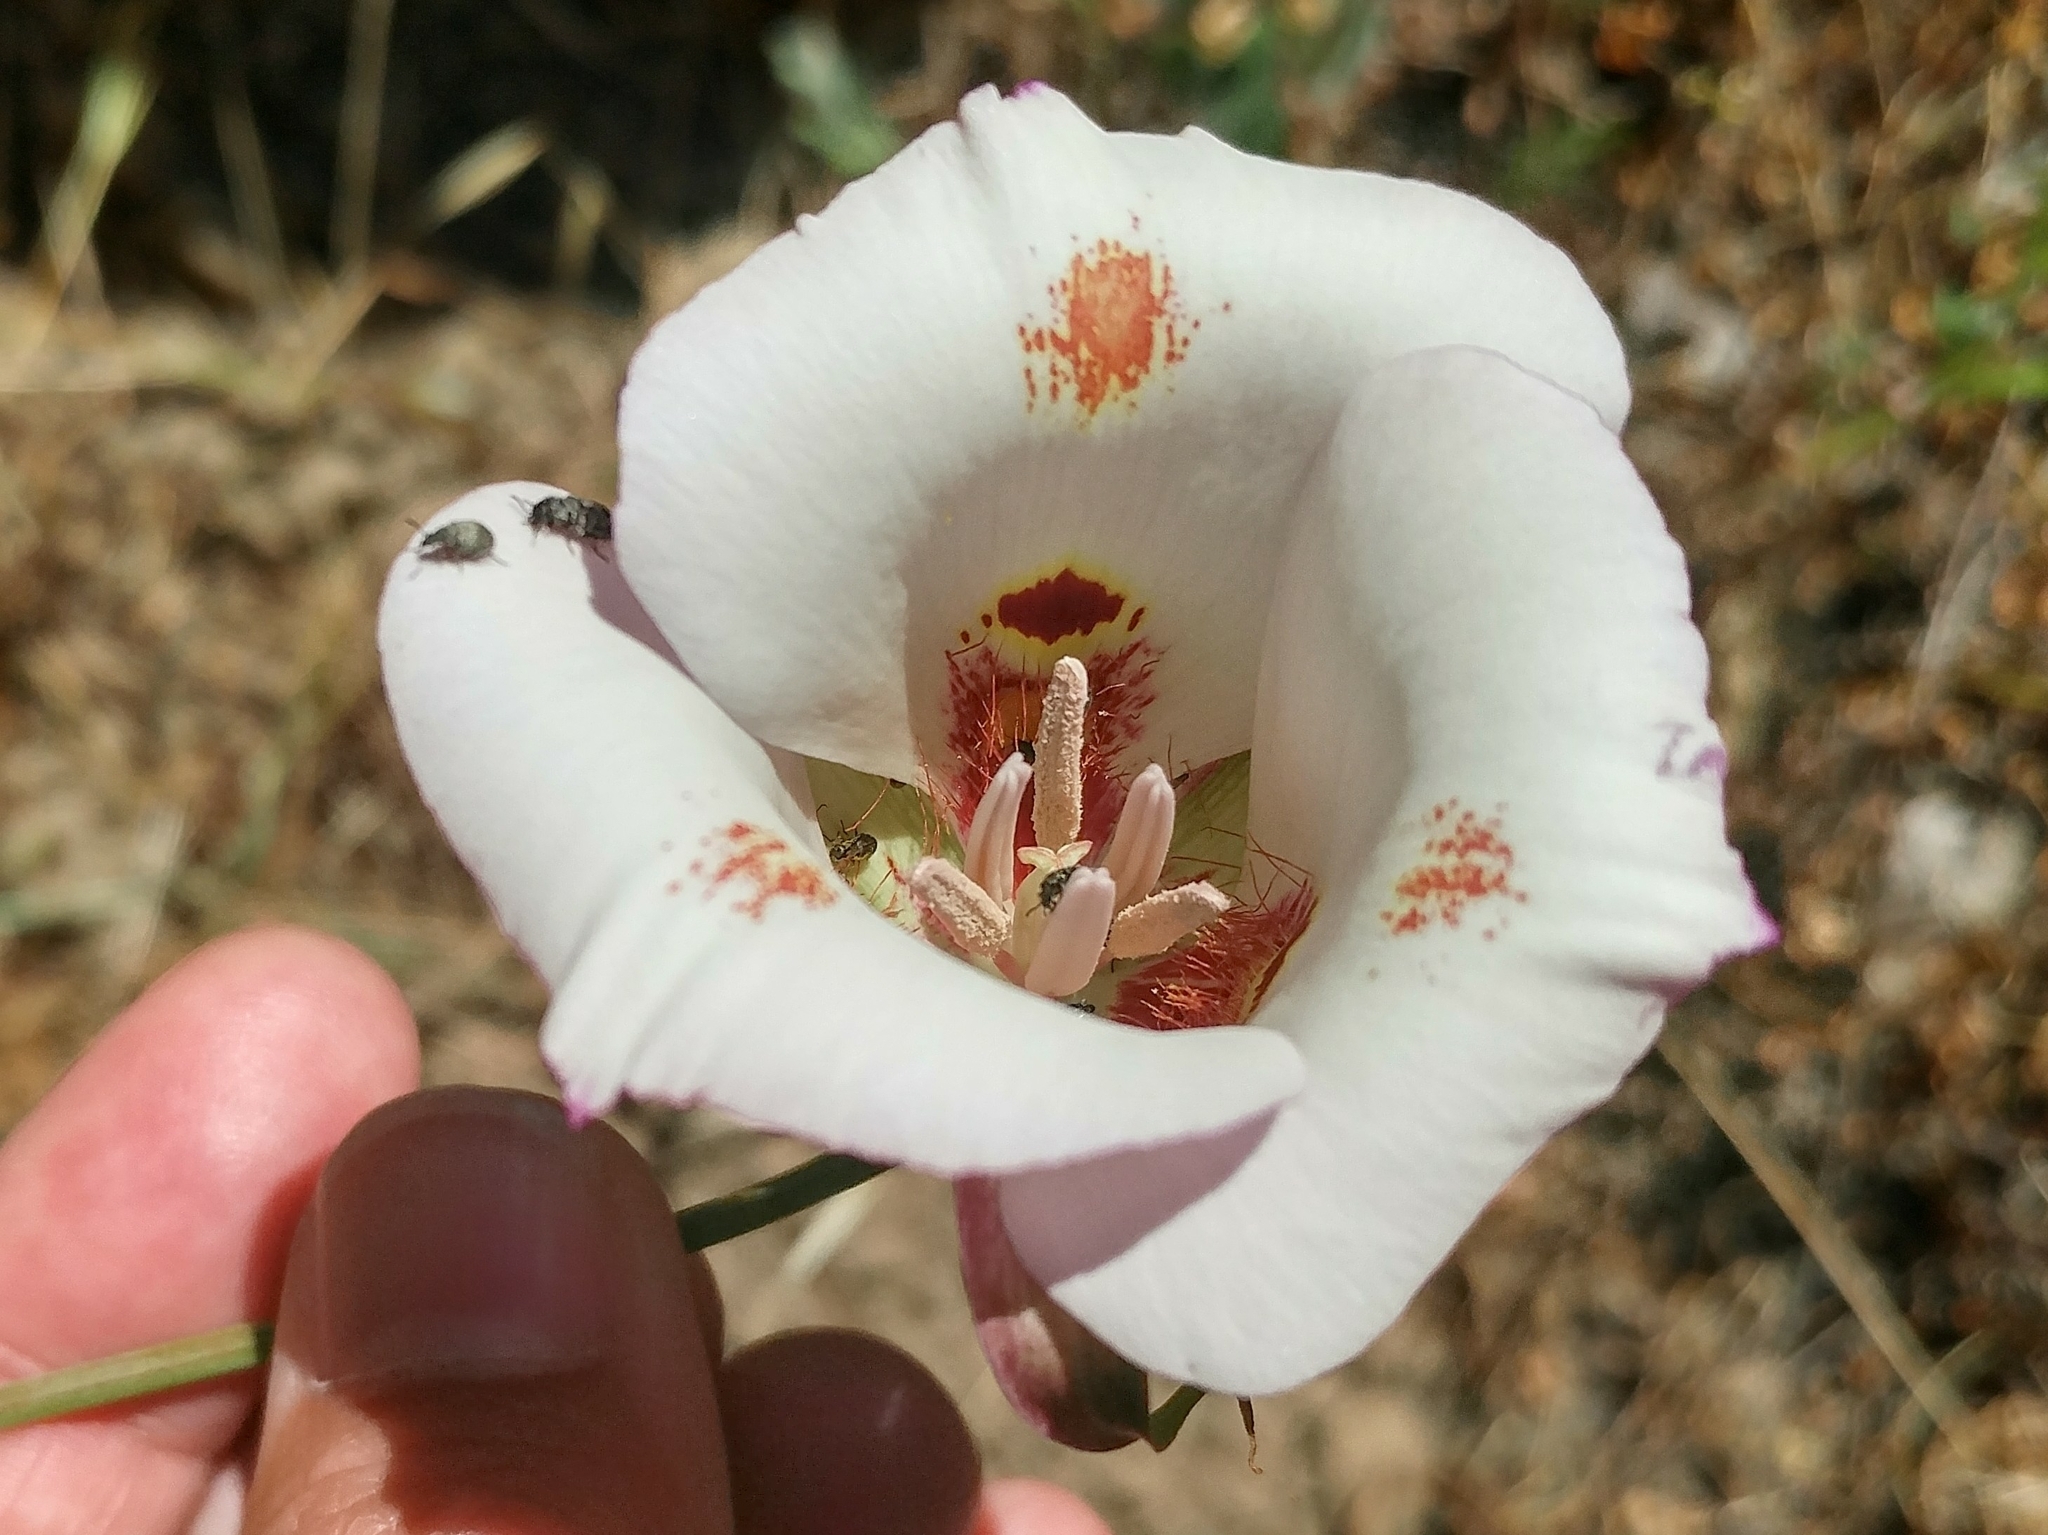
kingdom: Plantae
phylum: Tracheophyta
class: Liliopsida
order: Liliales
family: Liliaceae
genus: Calochortus
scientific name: Calochortus venustus
